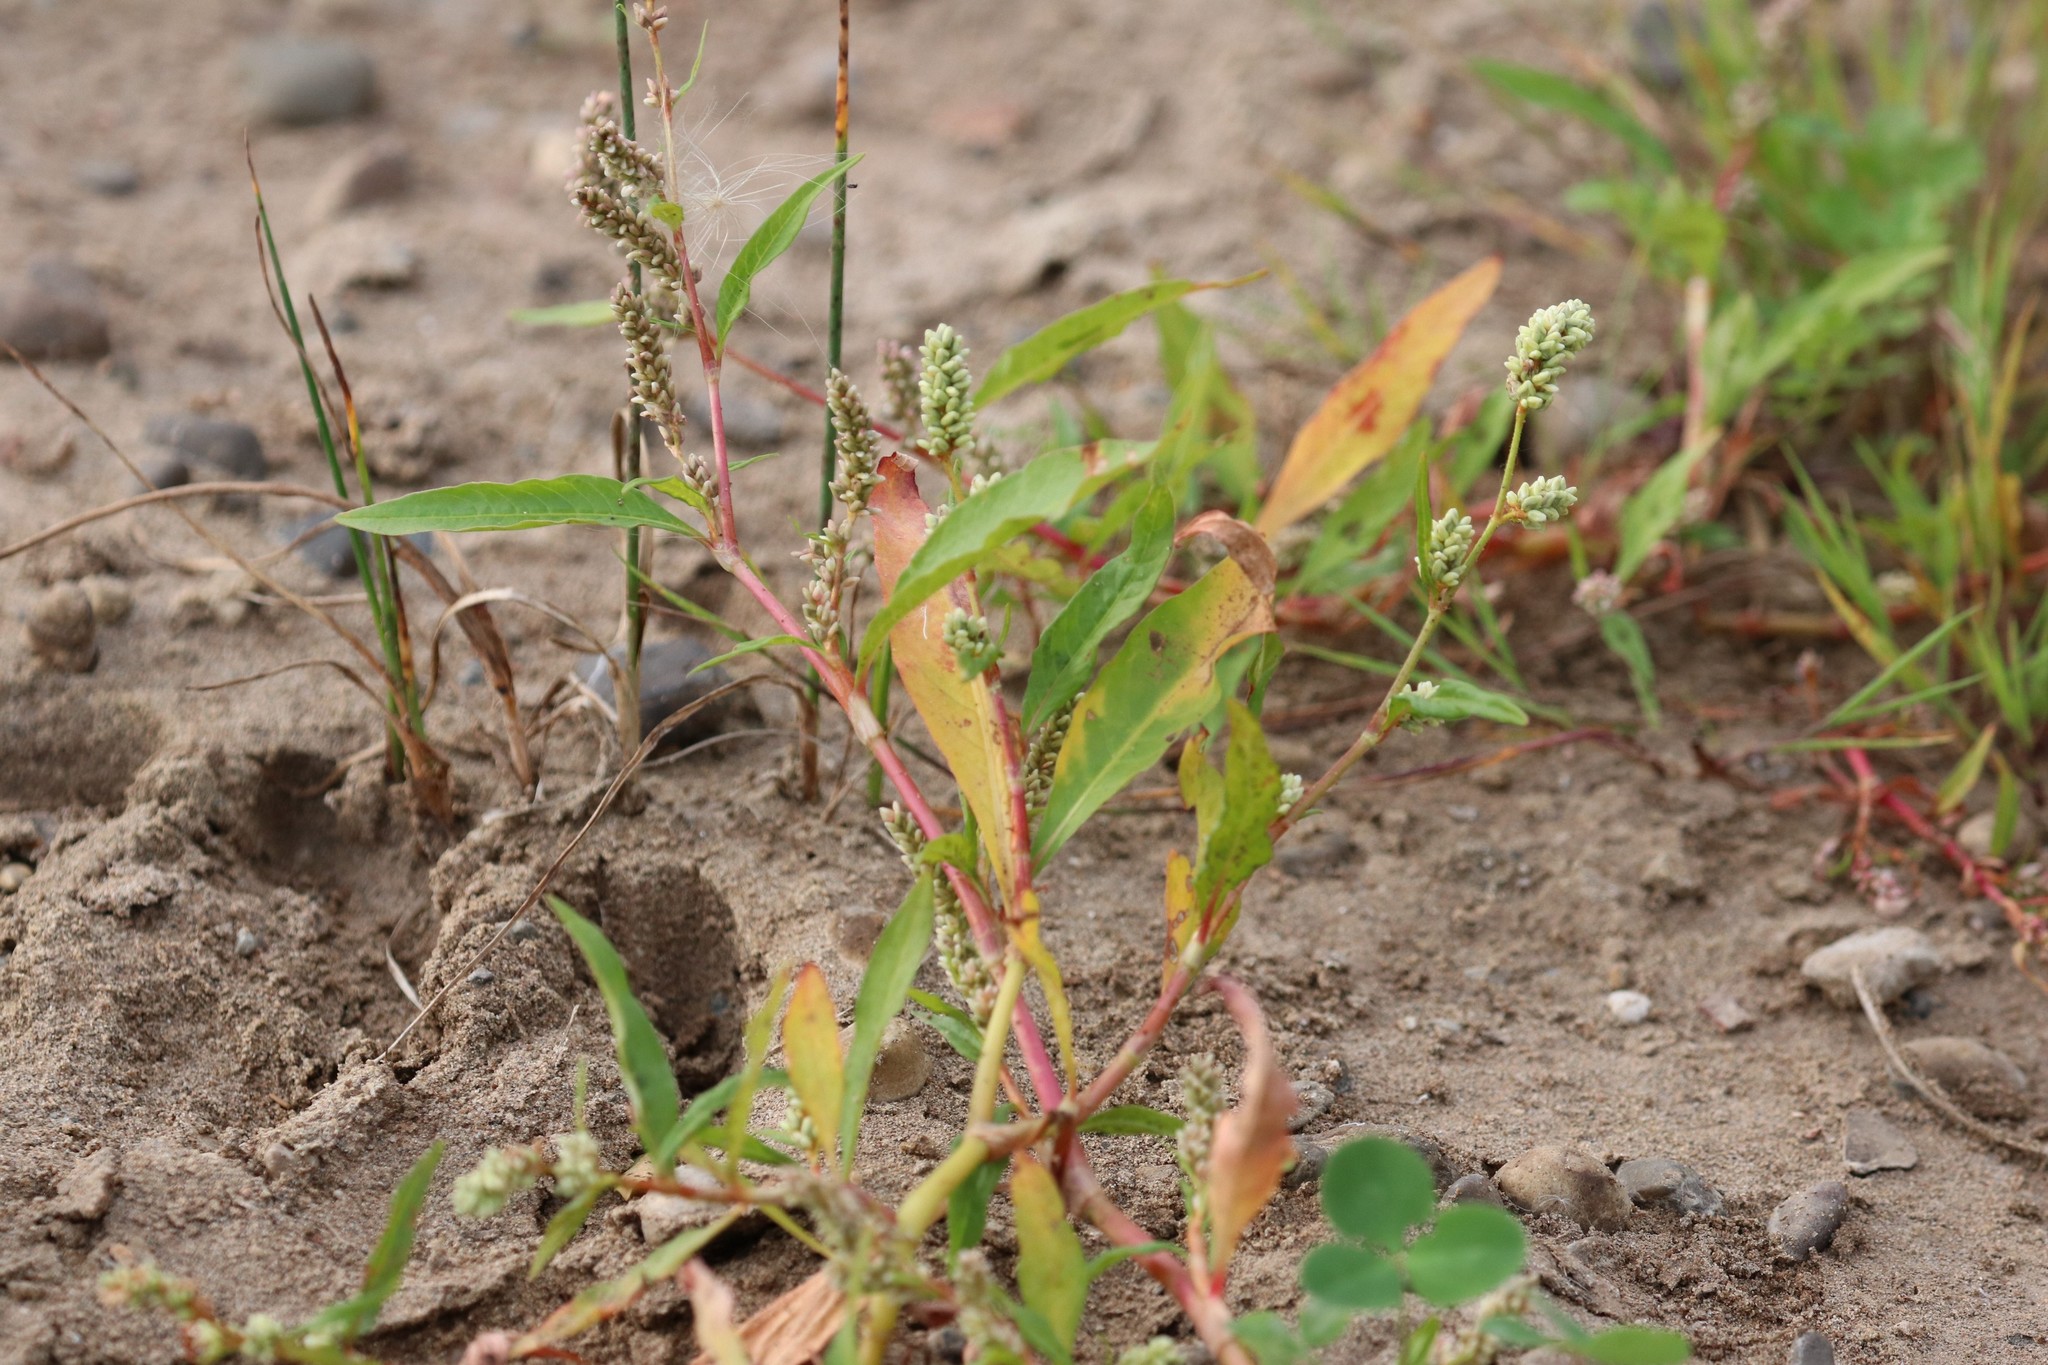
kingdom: Plantae
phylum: Tracheophyta
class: Magnoliopsida
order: Caryophyllales
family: Polygonaceae
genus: Persicaria
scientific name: Persicaria lapathifolia
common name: Curlytop knotweed
